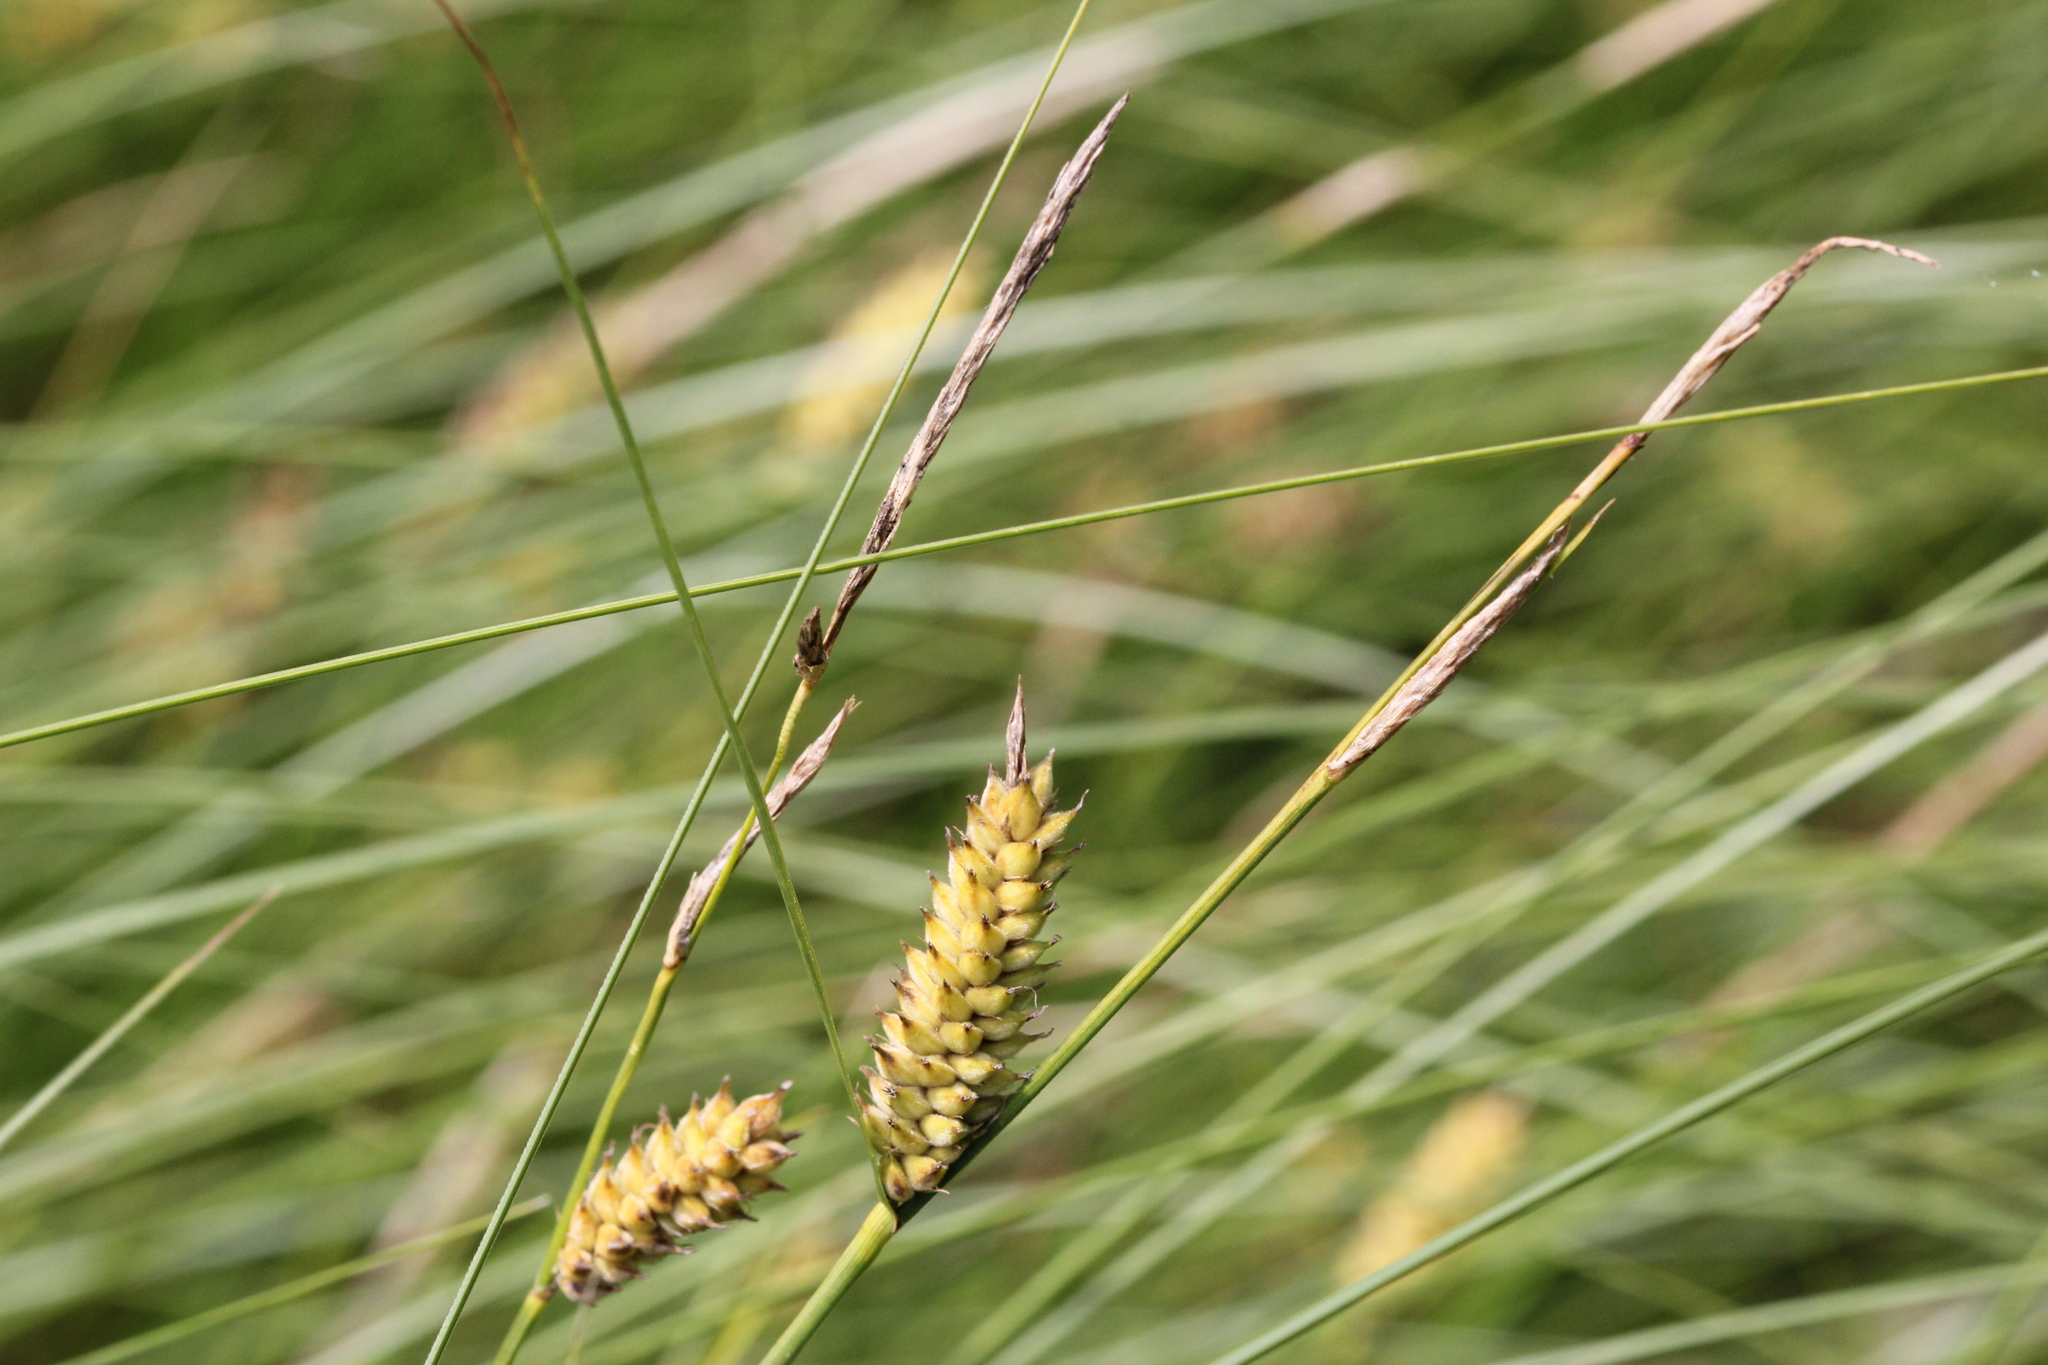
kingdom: Plantae
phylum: Tracheophyta
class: Liliopsida
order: Poales
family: Cyperaceae
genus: Carex
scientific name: Carex lasiocarpa
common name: Slender sedge
